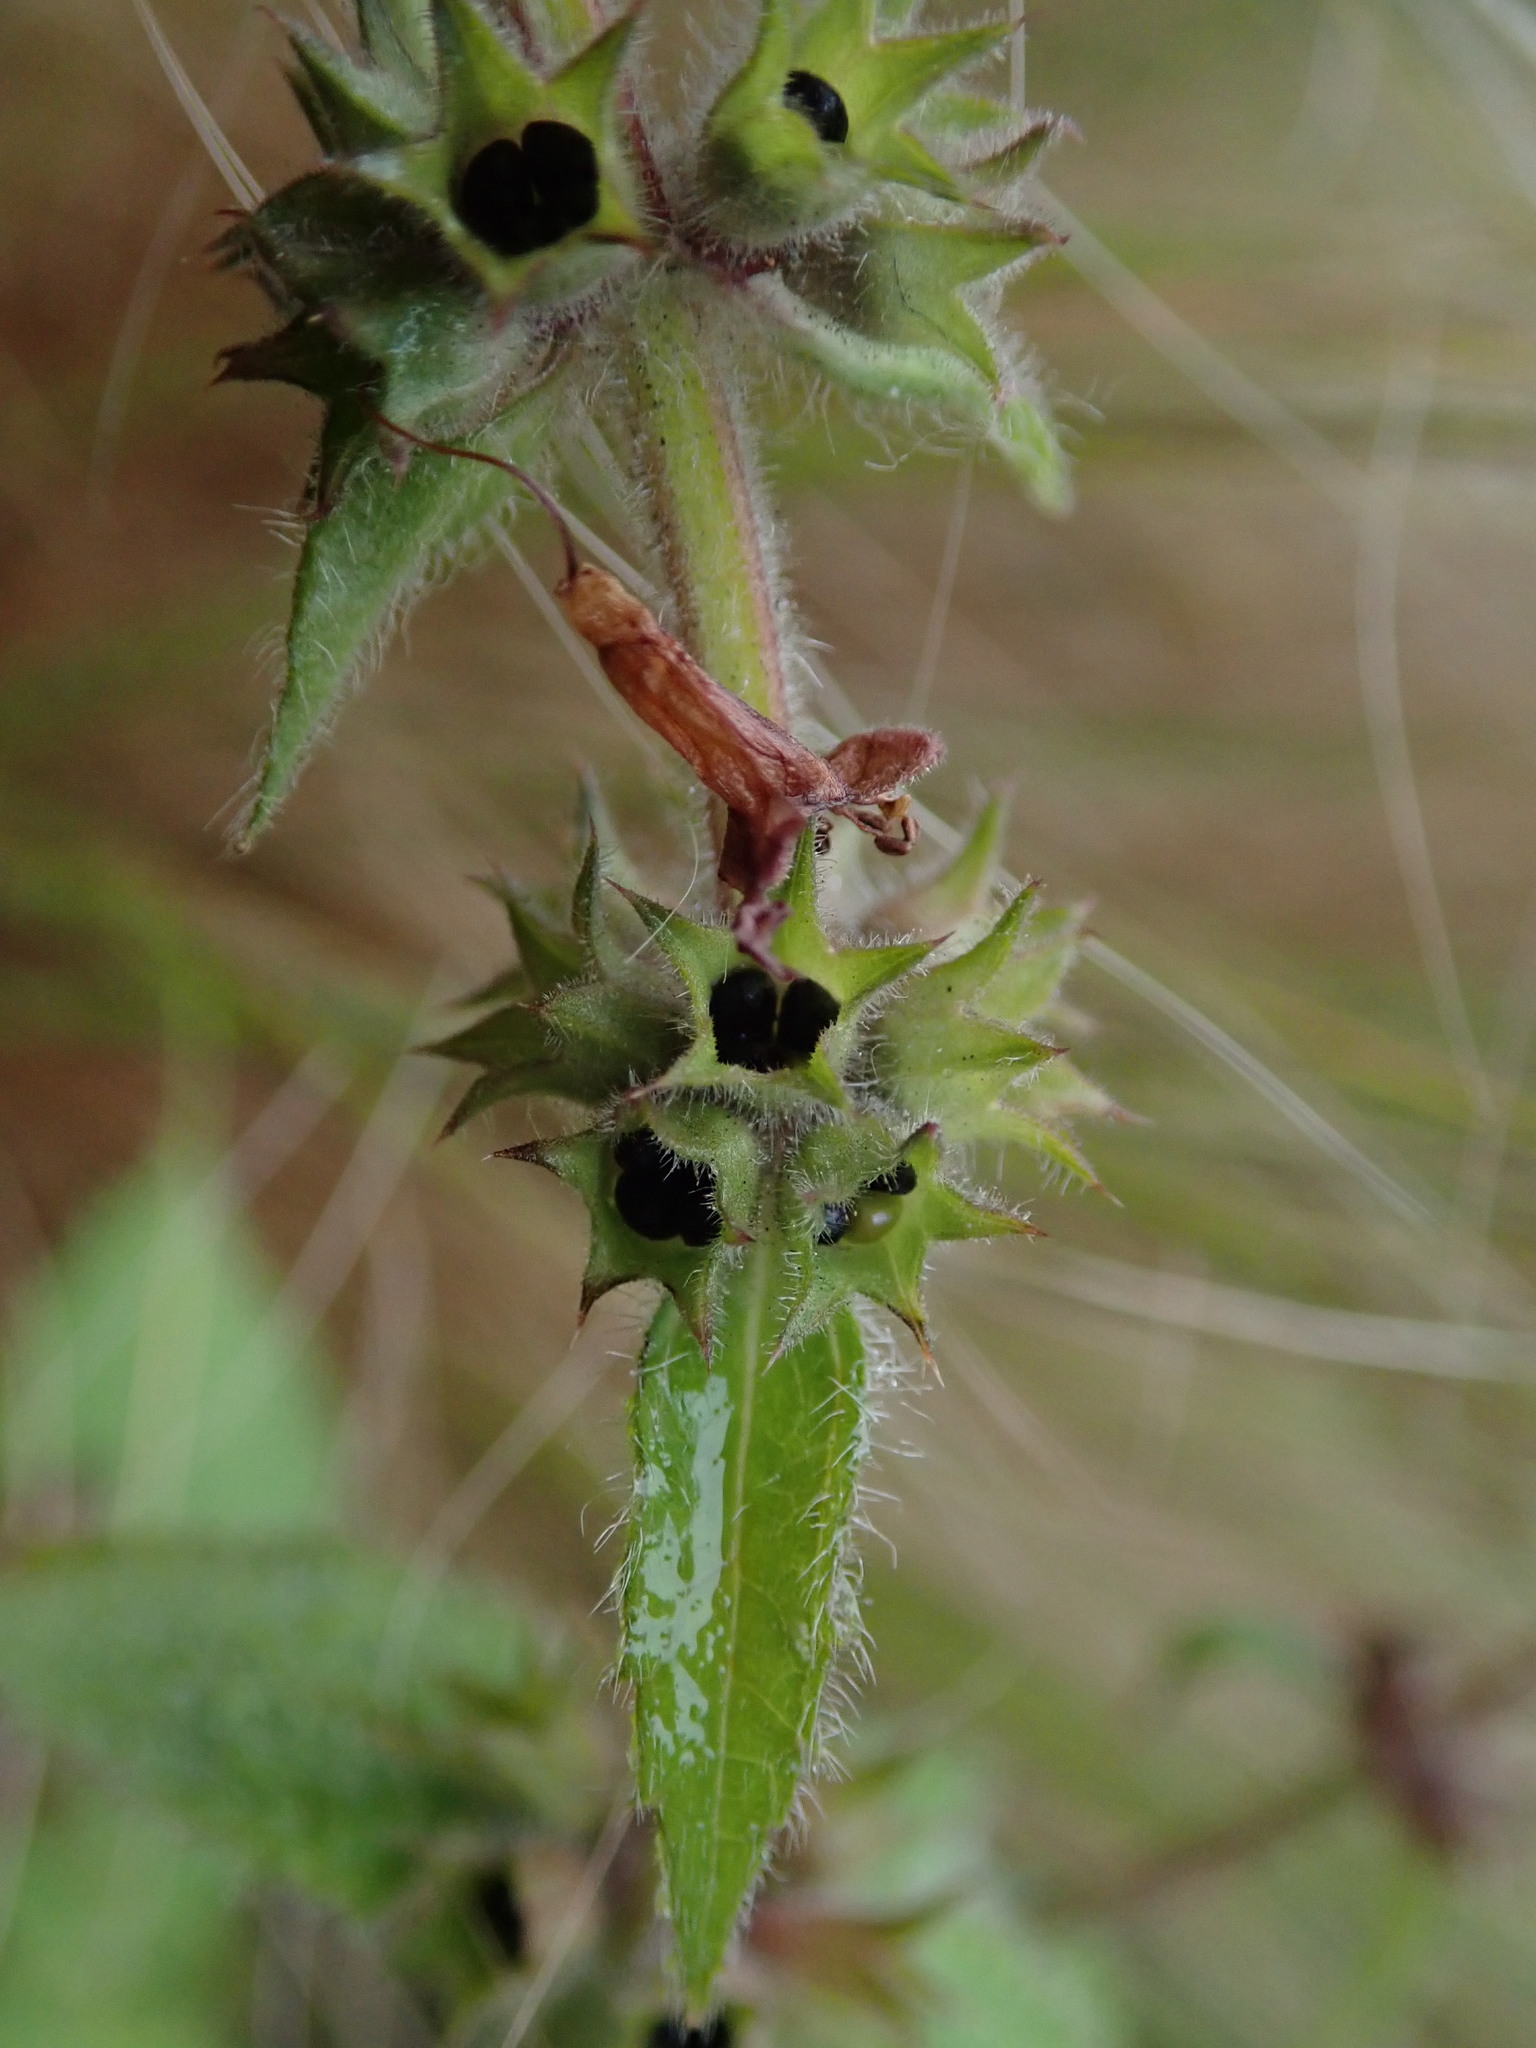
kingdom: Plantae
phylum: Tracheophyta
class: Magnoliopsida
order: Lamiales
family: Lamiaceae
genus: Stachys
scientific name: Stachys sylvatica
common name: Hedge woundwort
